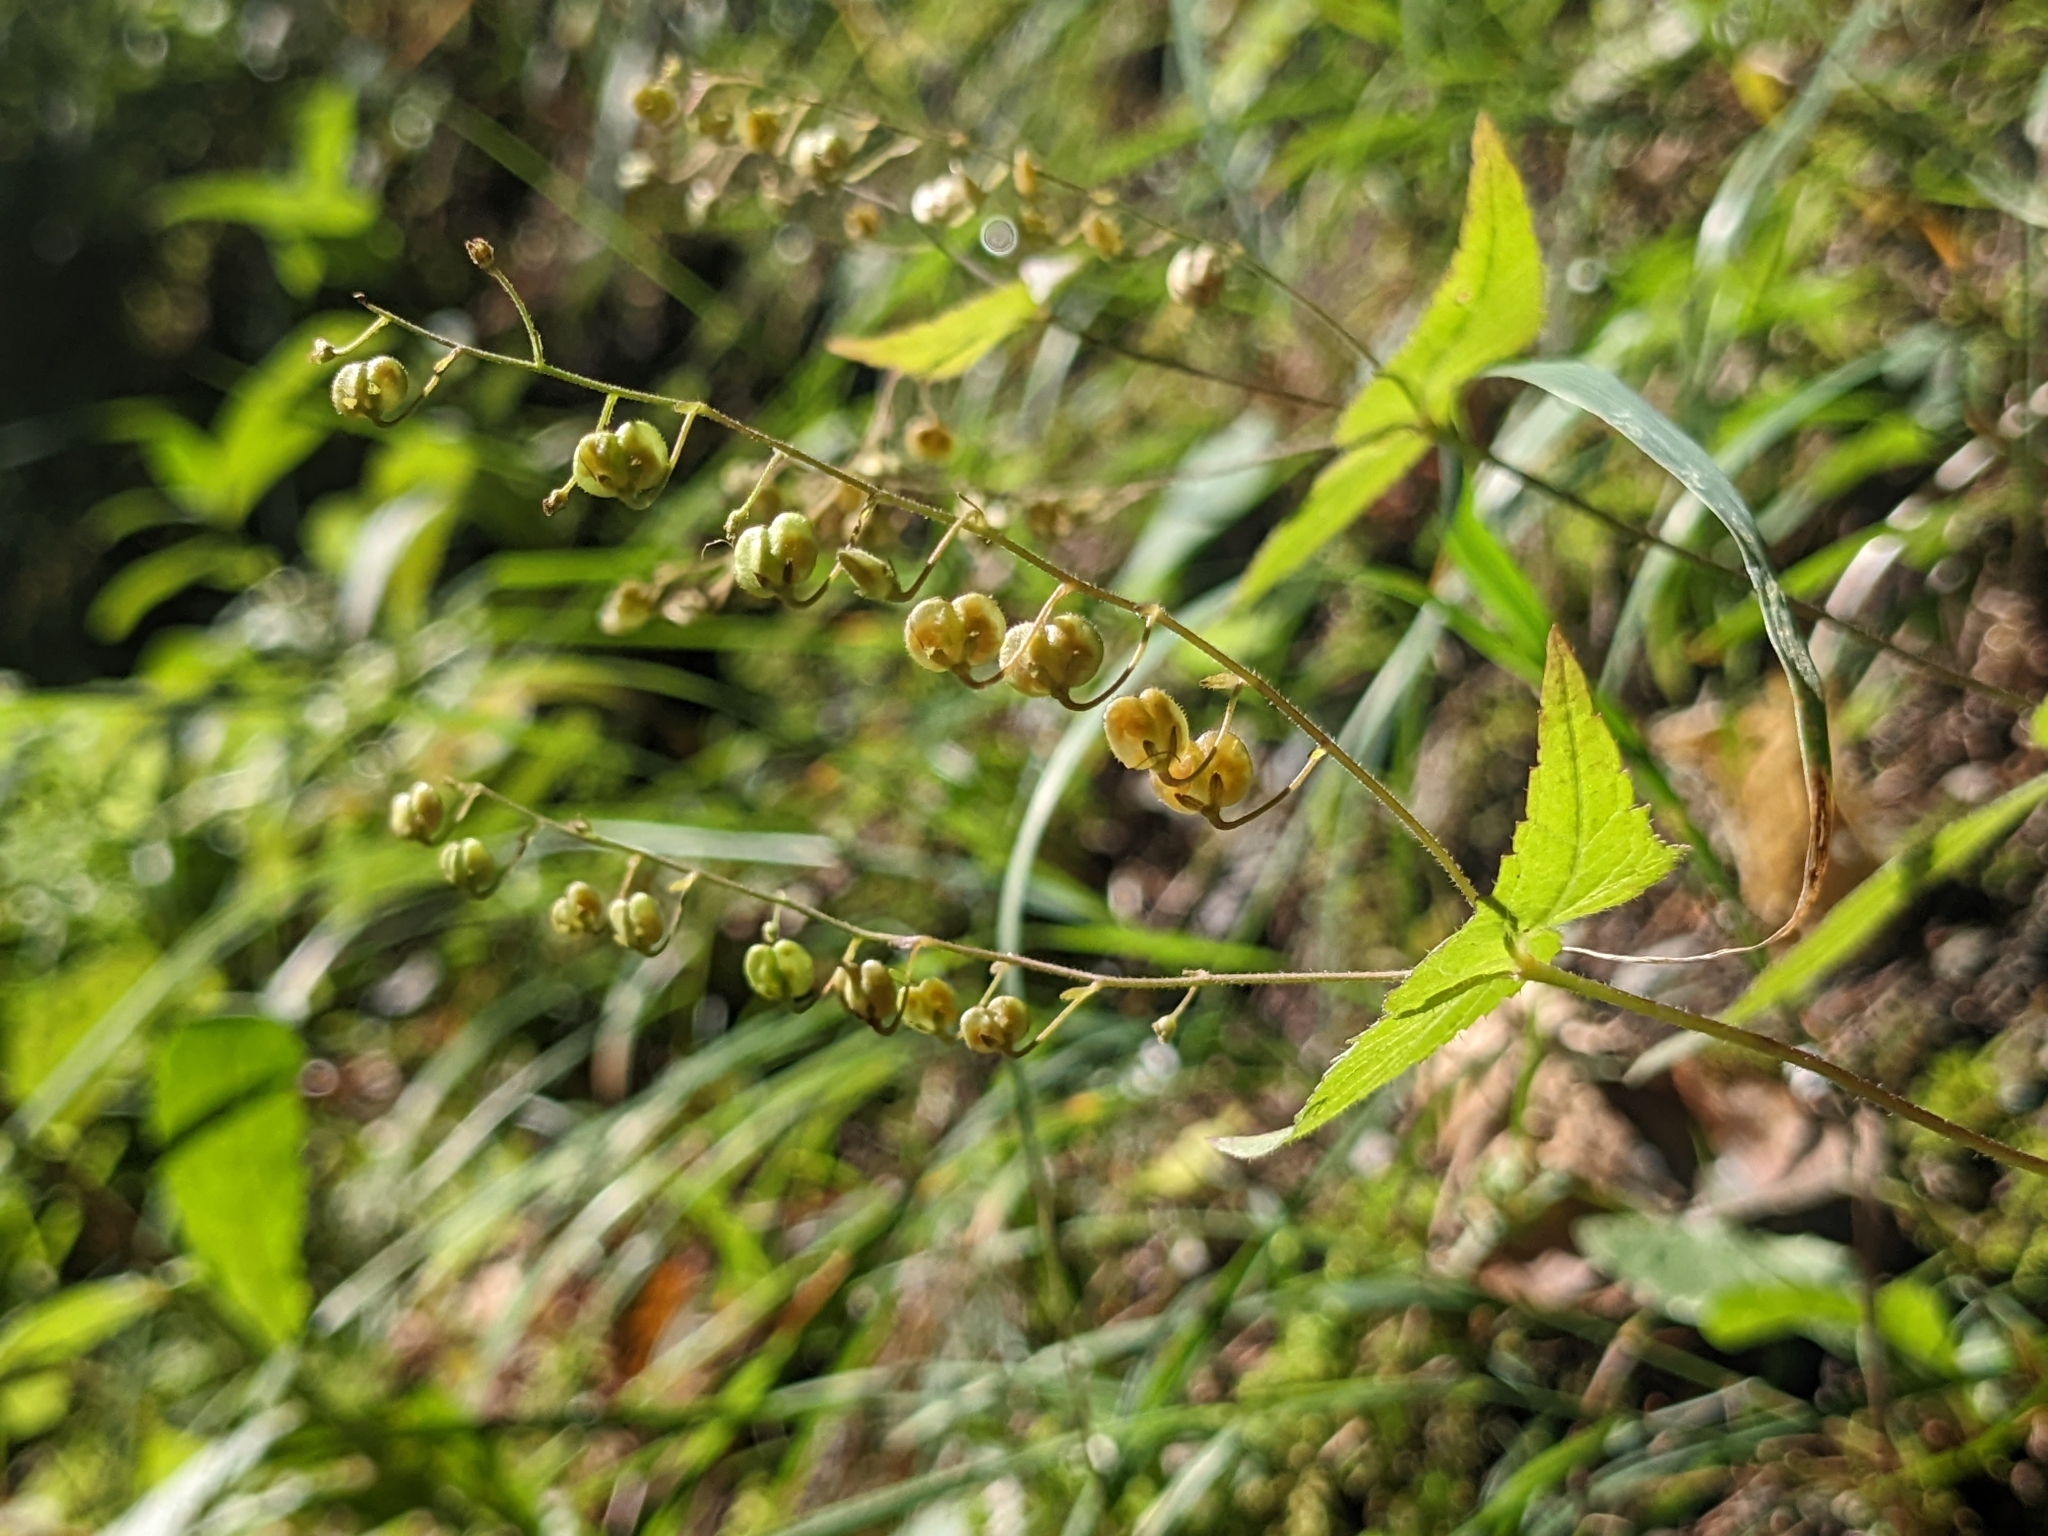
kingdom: Plantae
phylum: Tracheophyta
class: Magnoliopsida
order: Lamiales
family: Plantaginaceae
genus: Veronica
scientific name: Veronica urticifolia
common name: Nettle-leaf speedwell
